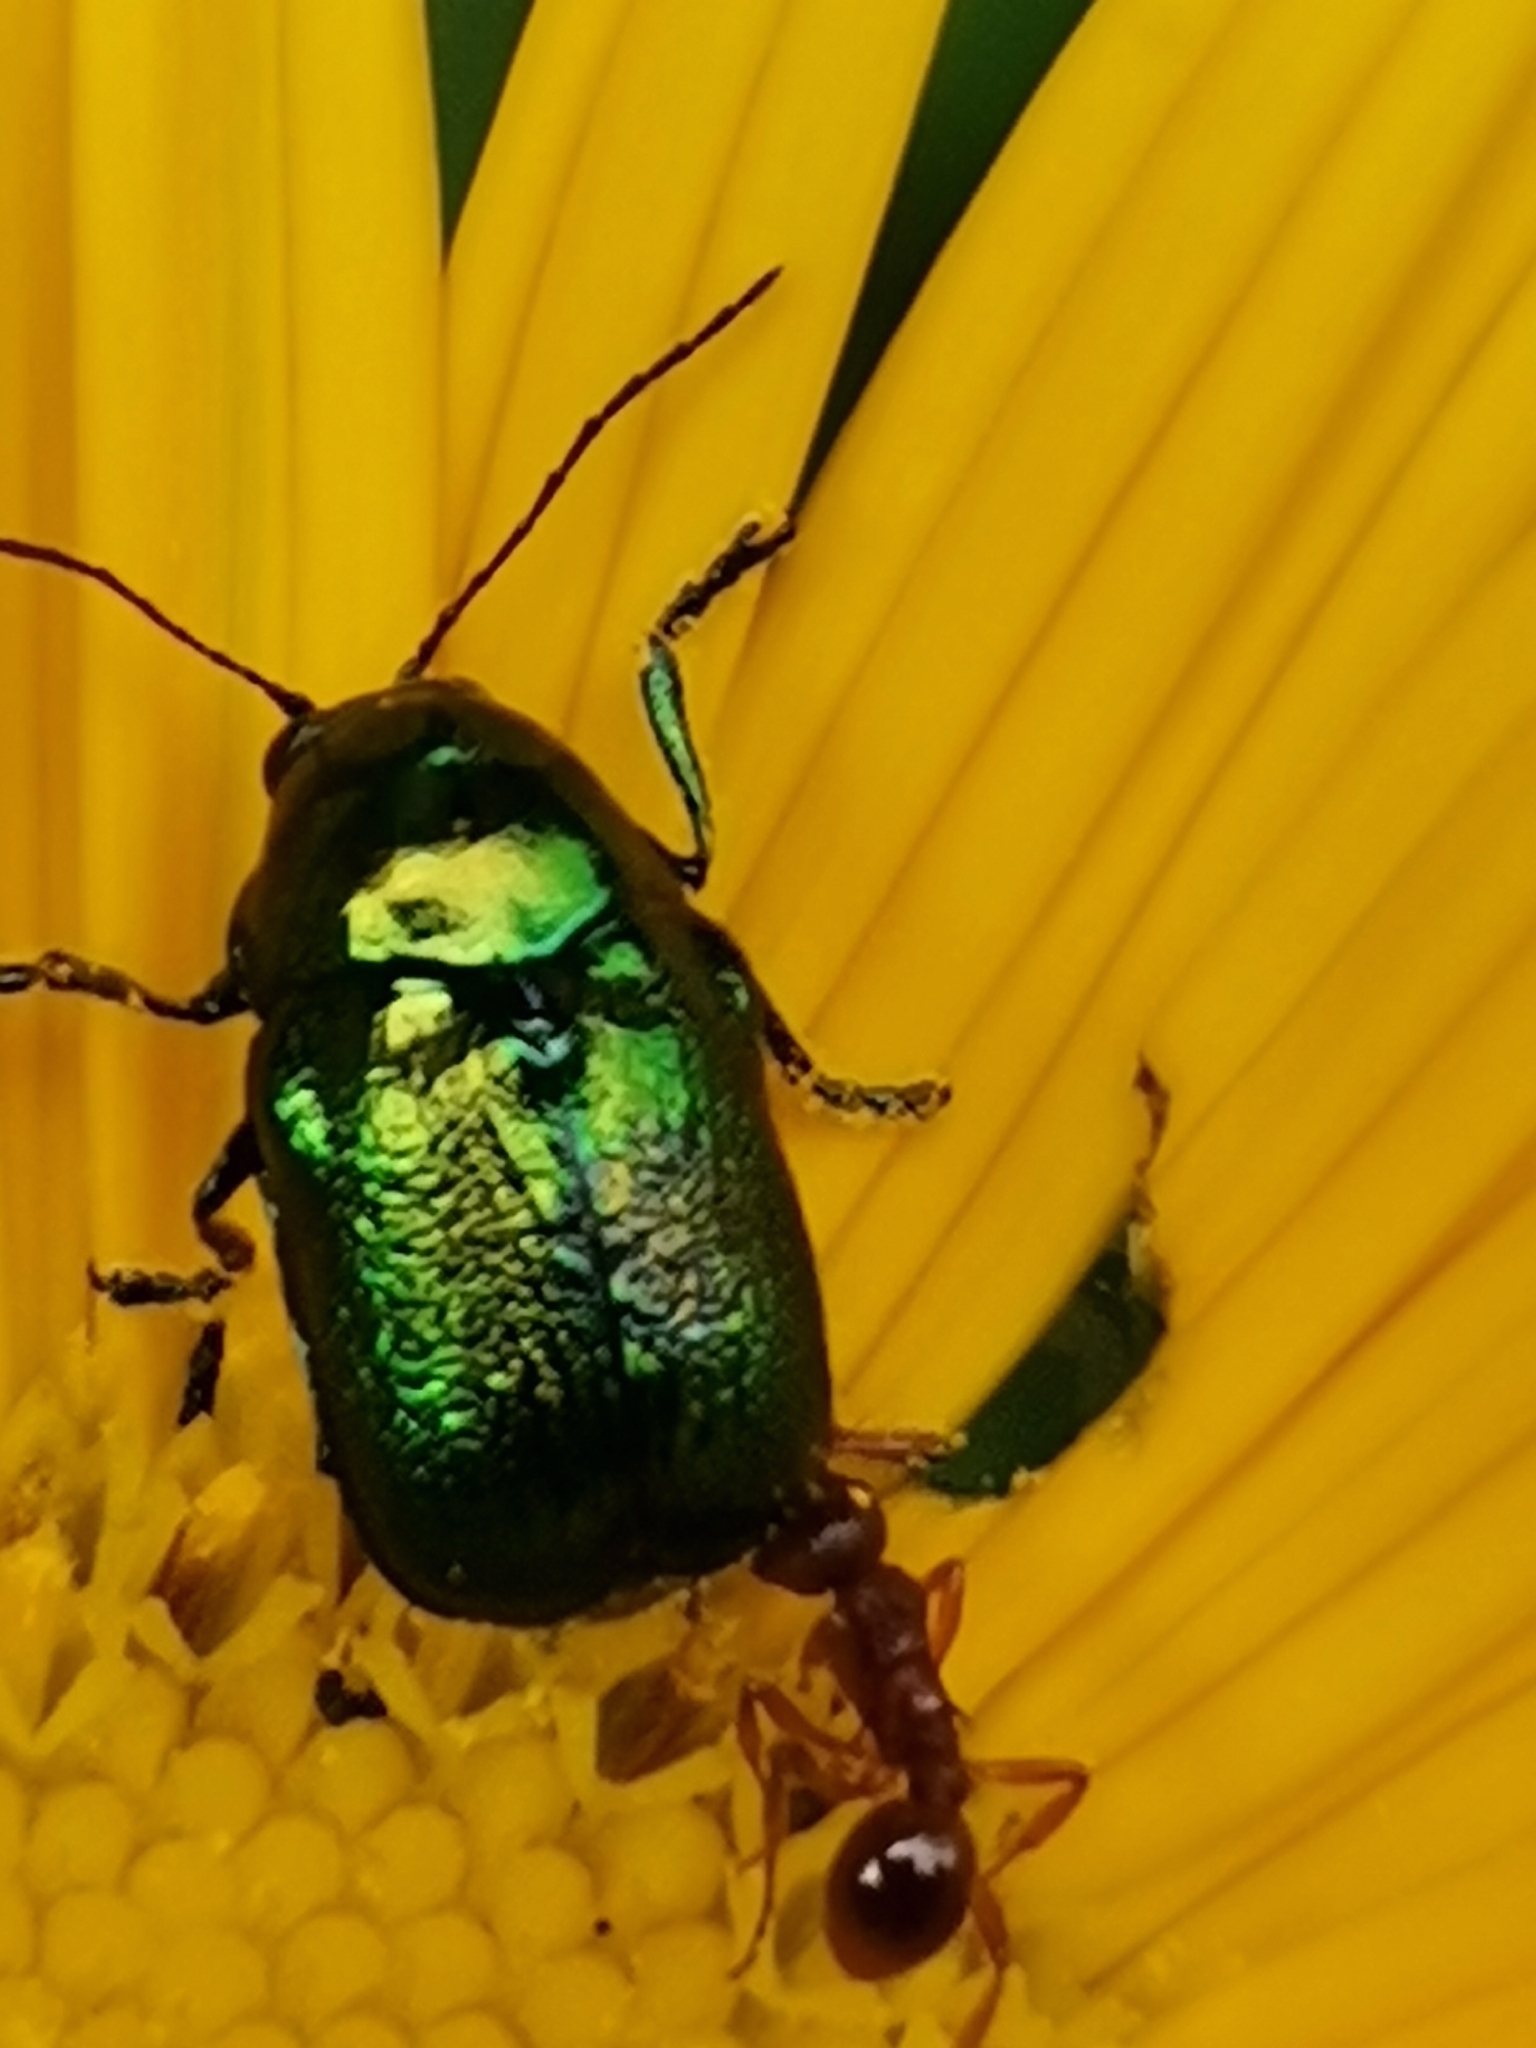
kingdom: Animalia
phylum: Arthropoda
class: Insecta
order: Coleoptera
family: Chrysomelidae
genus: Cryptocephalus
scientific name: Cryptocephalus
